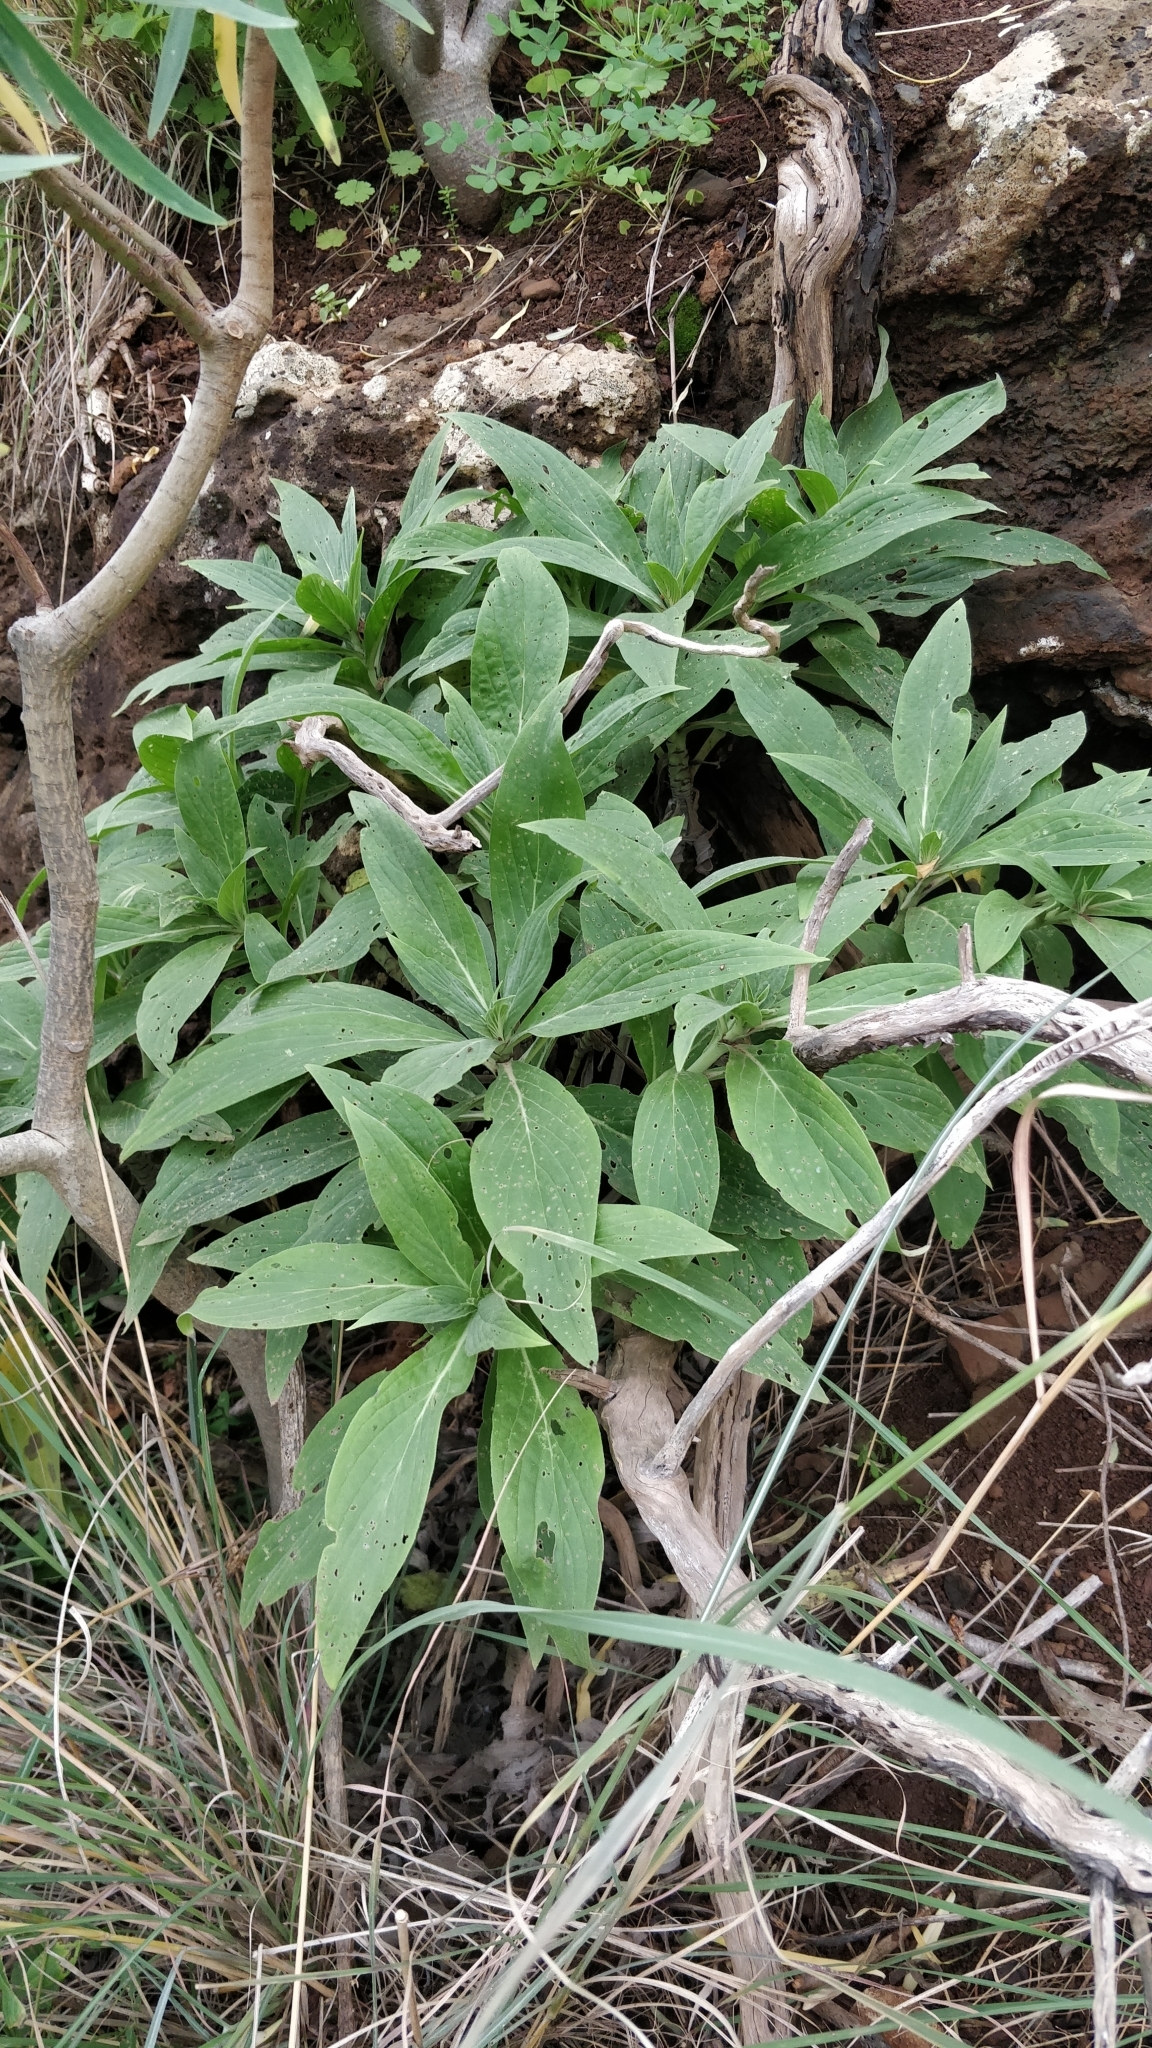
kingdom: Plantae
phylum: Tracheophyta
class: Magnoliopsida
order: Boraginales
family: Boraginaceae
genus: Echium
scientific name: Echium nervosum
